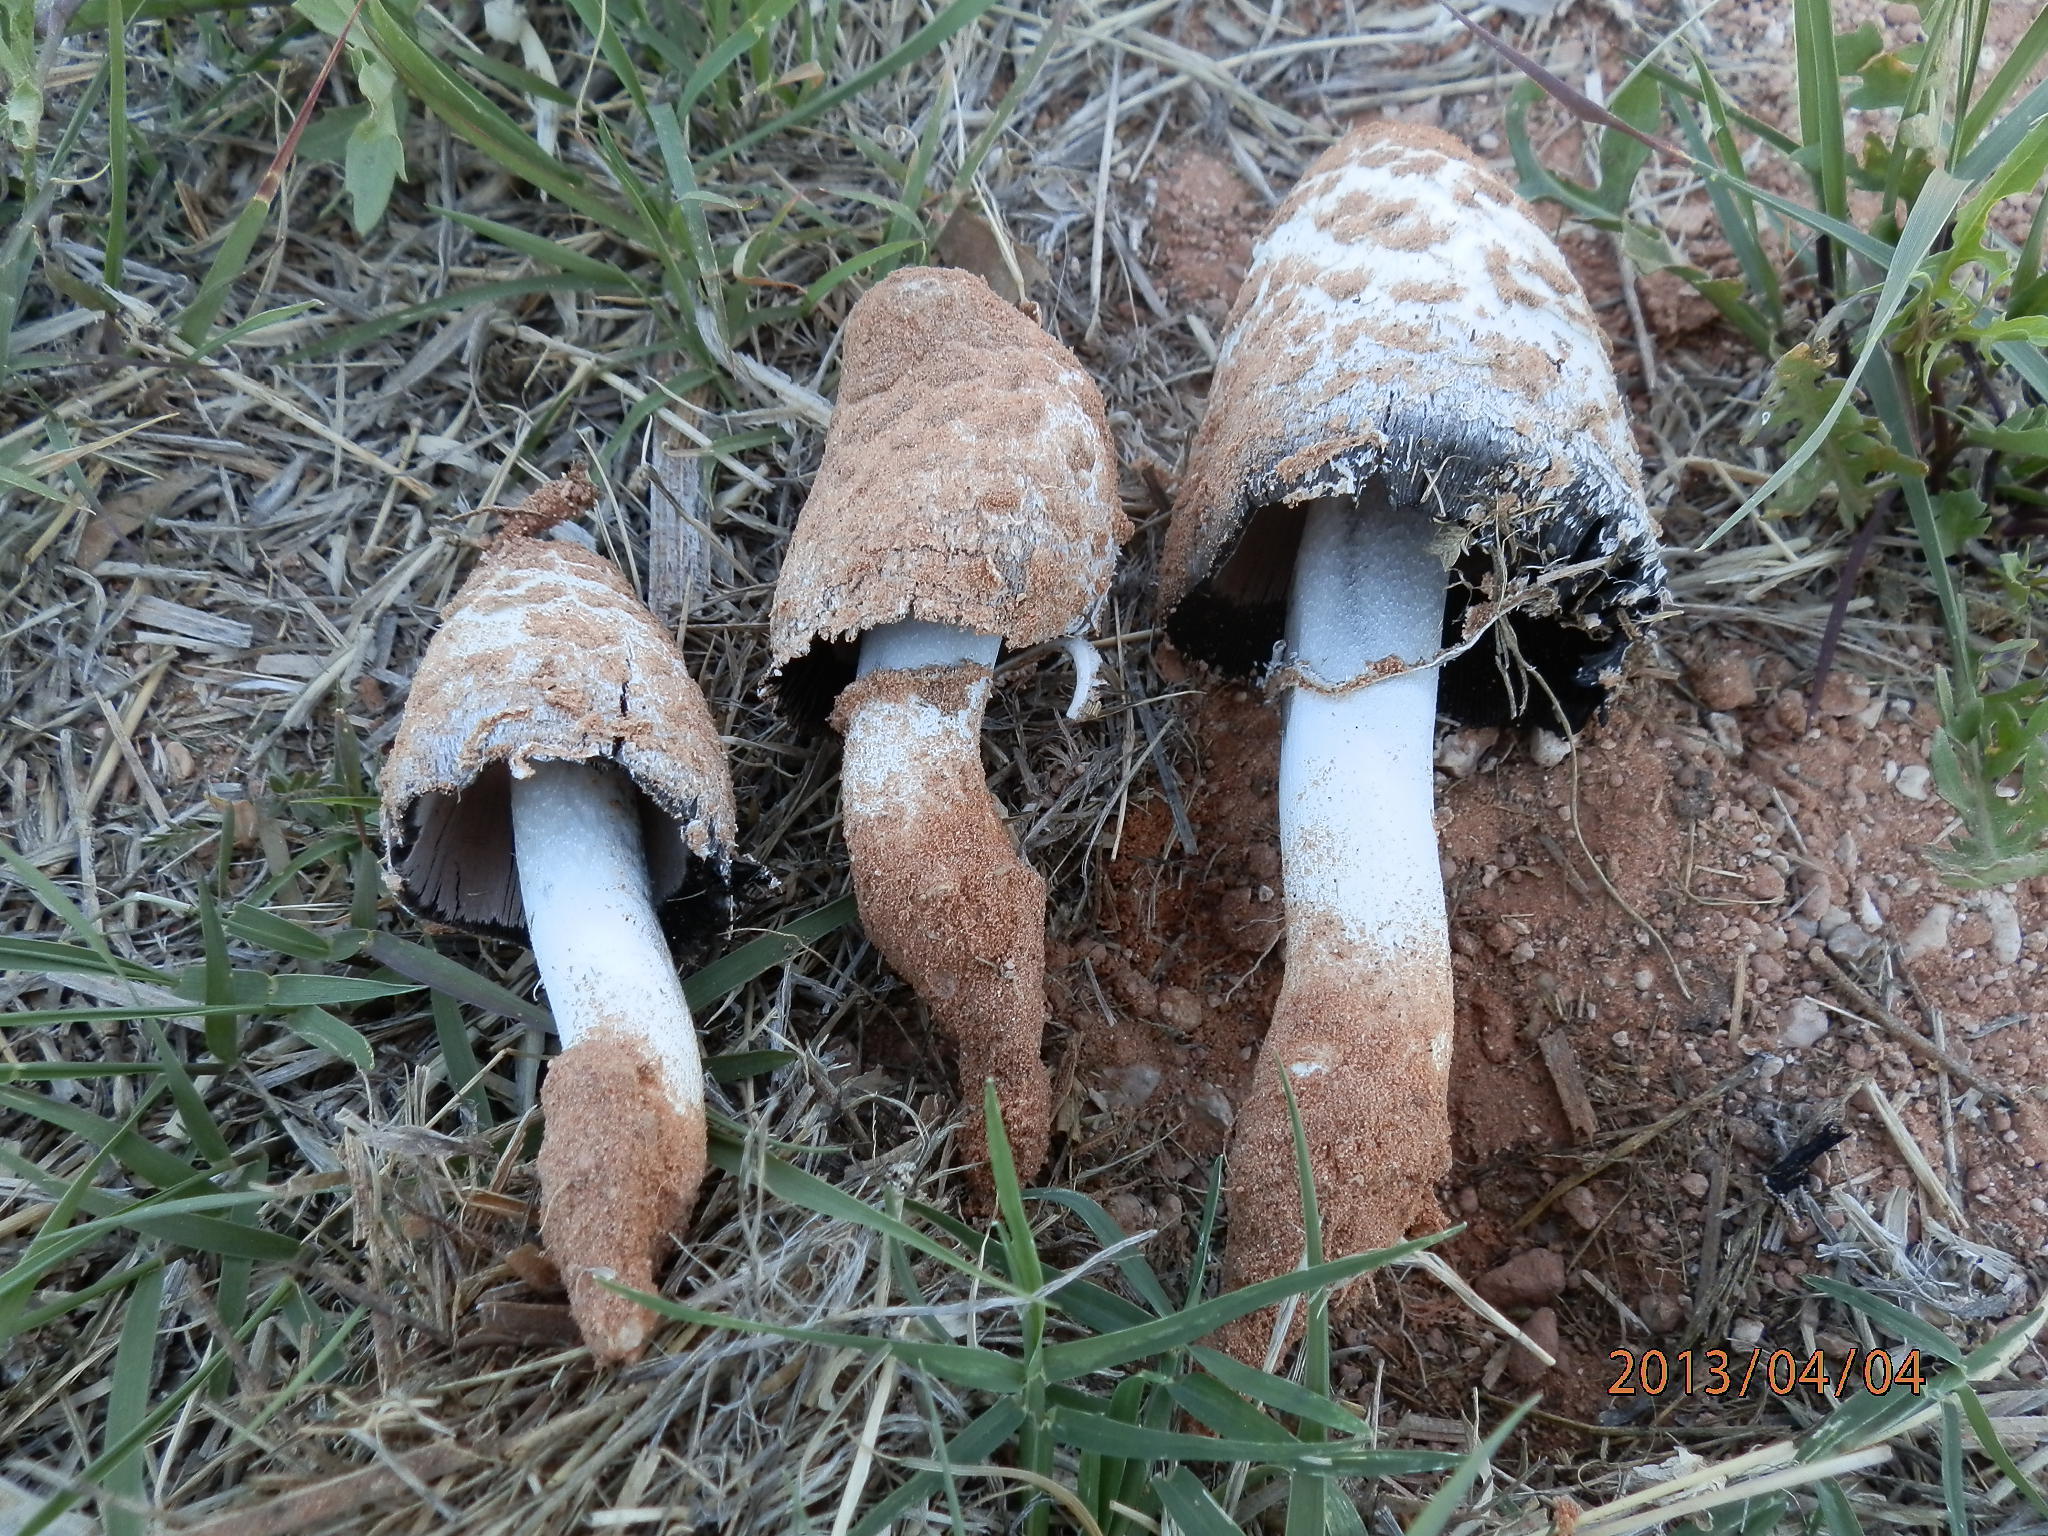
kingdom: Fungi
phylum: Basidiomycota
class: Agaricomycetes
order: Agaricales
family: Agaricaceae
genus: Coprinus
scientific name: Coprinus comatus
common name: Lawyer's wig
